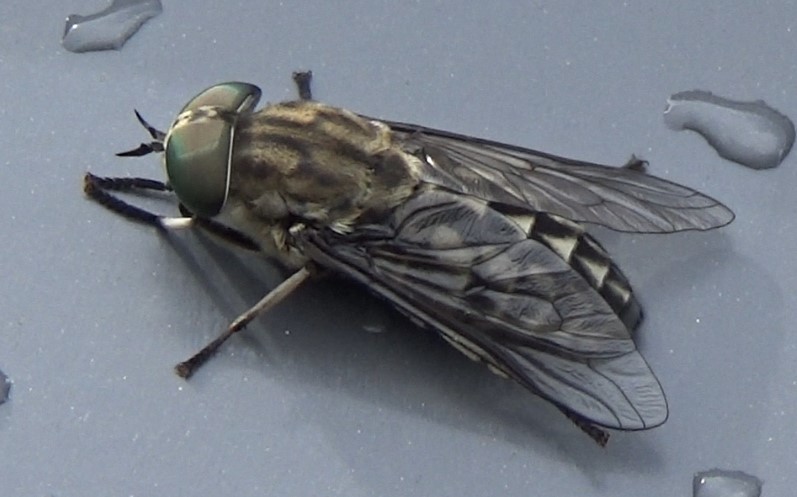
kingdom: Animalia
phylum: Arthropoda
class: Insecta
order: Diptera
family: Tabanidae
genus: Tabanus
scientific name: Tabanus autumnalis
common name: Large marsh horsefly
